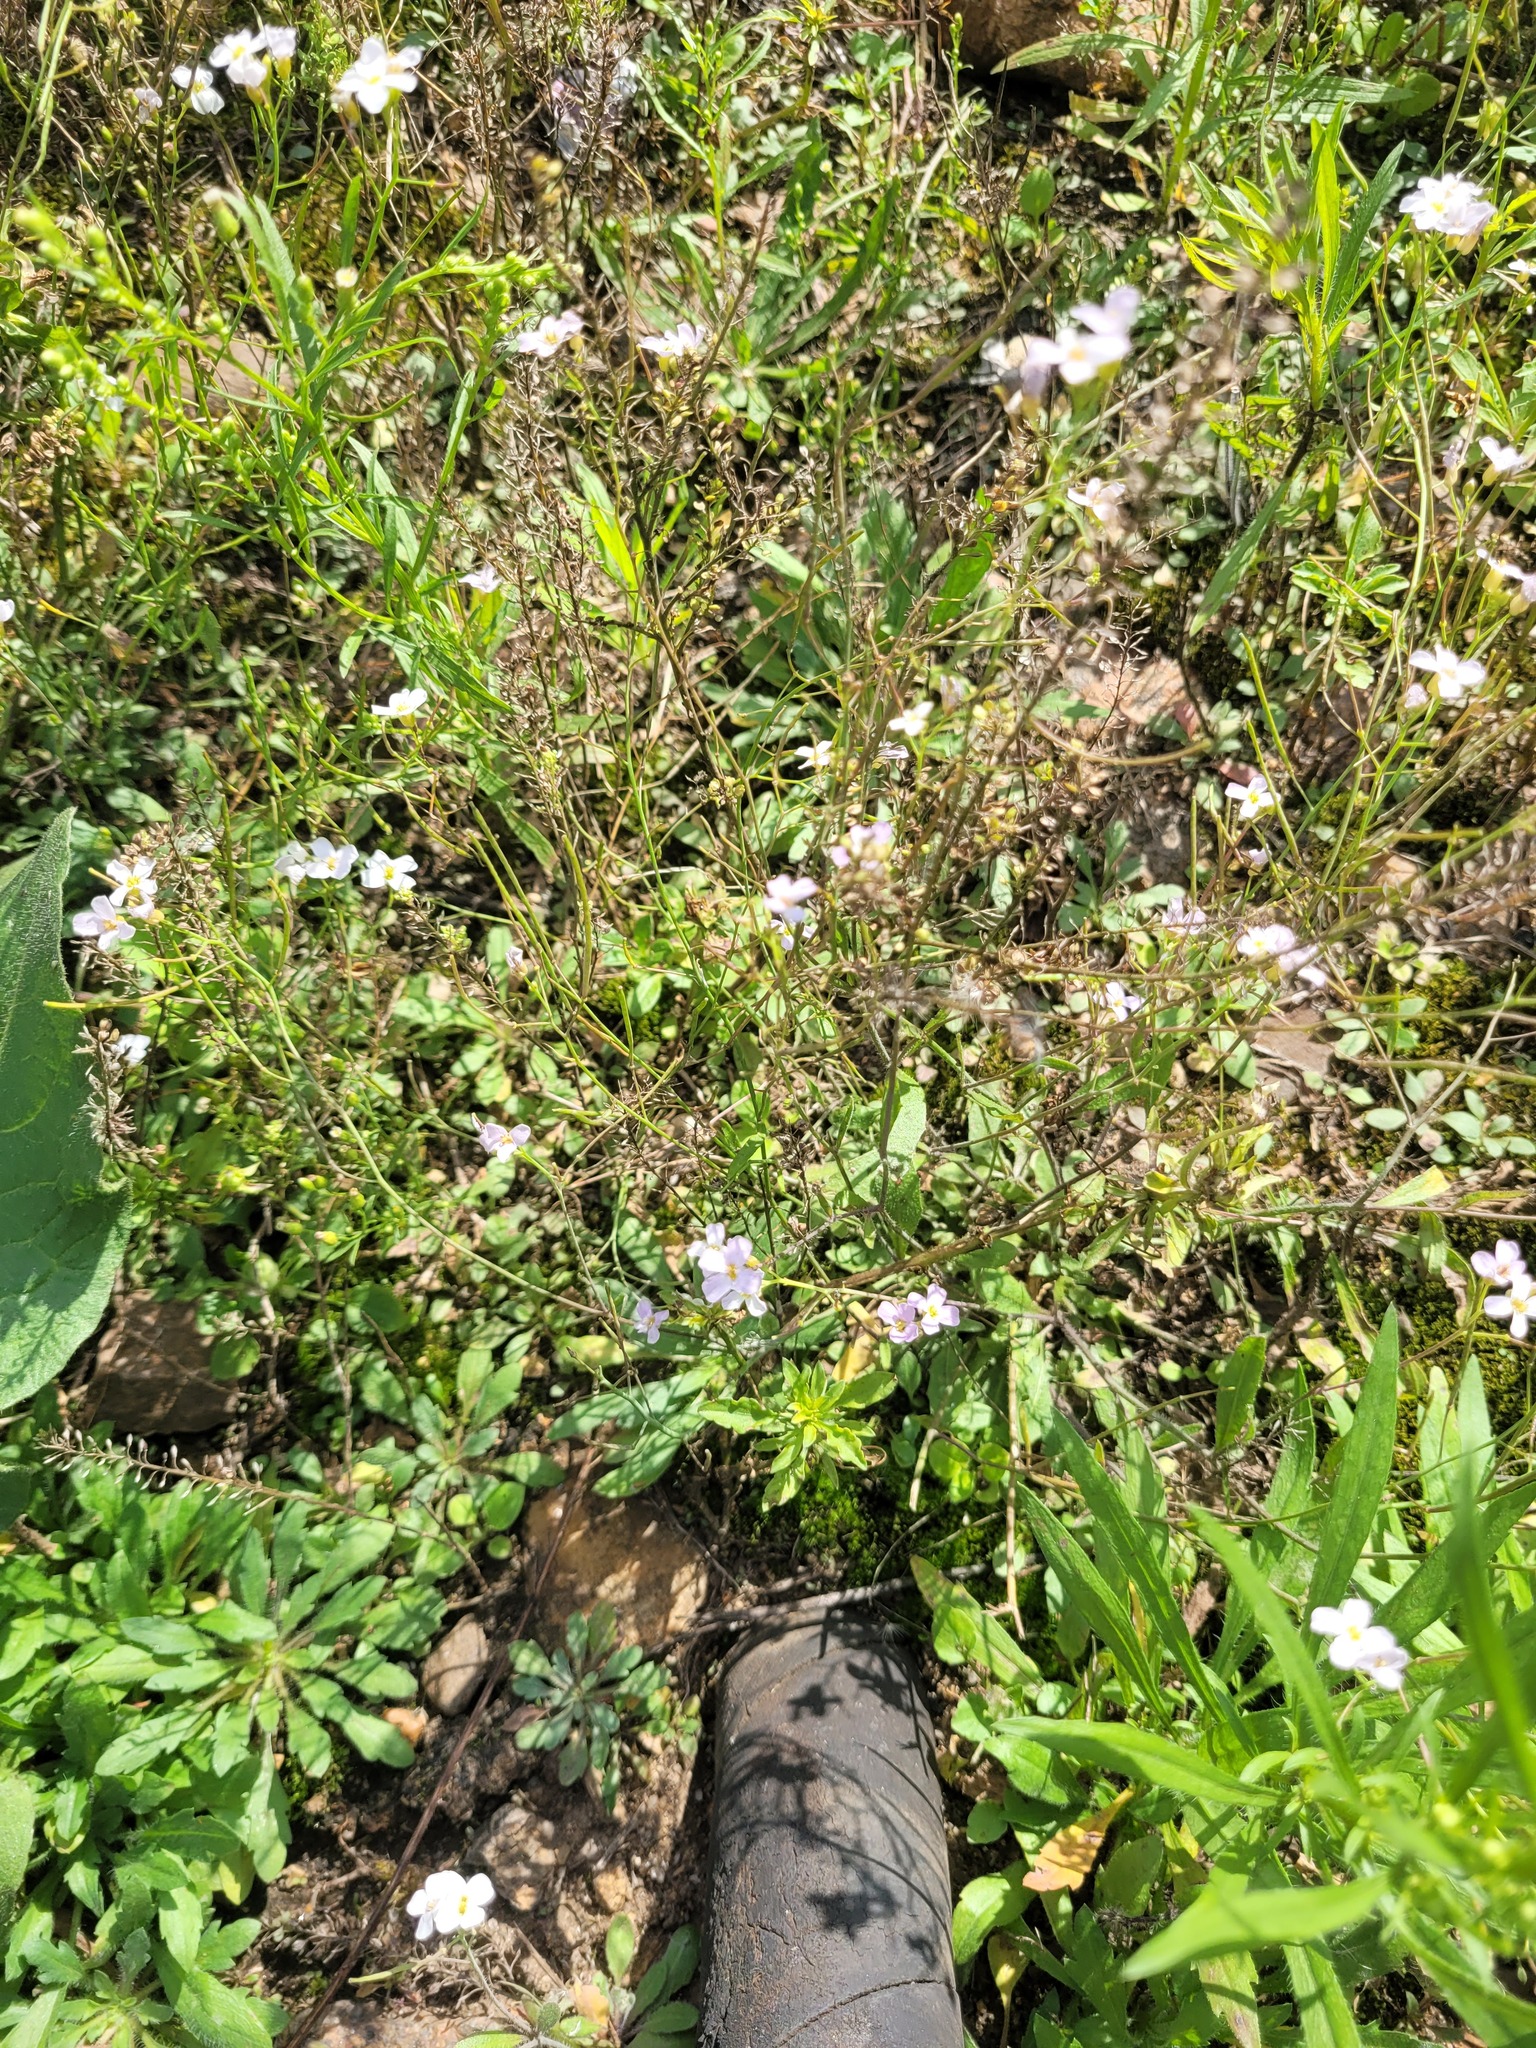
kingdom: Plantae
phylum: Tracheophyta
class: Magnoliopsida
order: Brassicales
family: Brassicaceae
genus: Arabidopsis
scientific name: Arabidopsis arenosa
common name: Sand rock-cress
